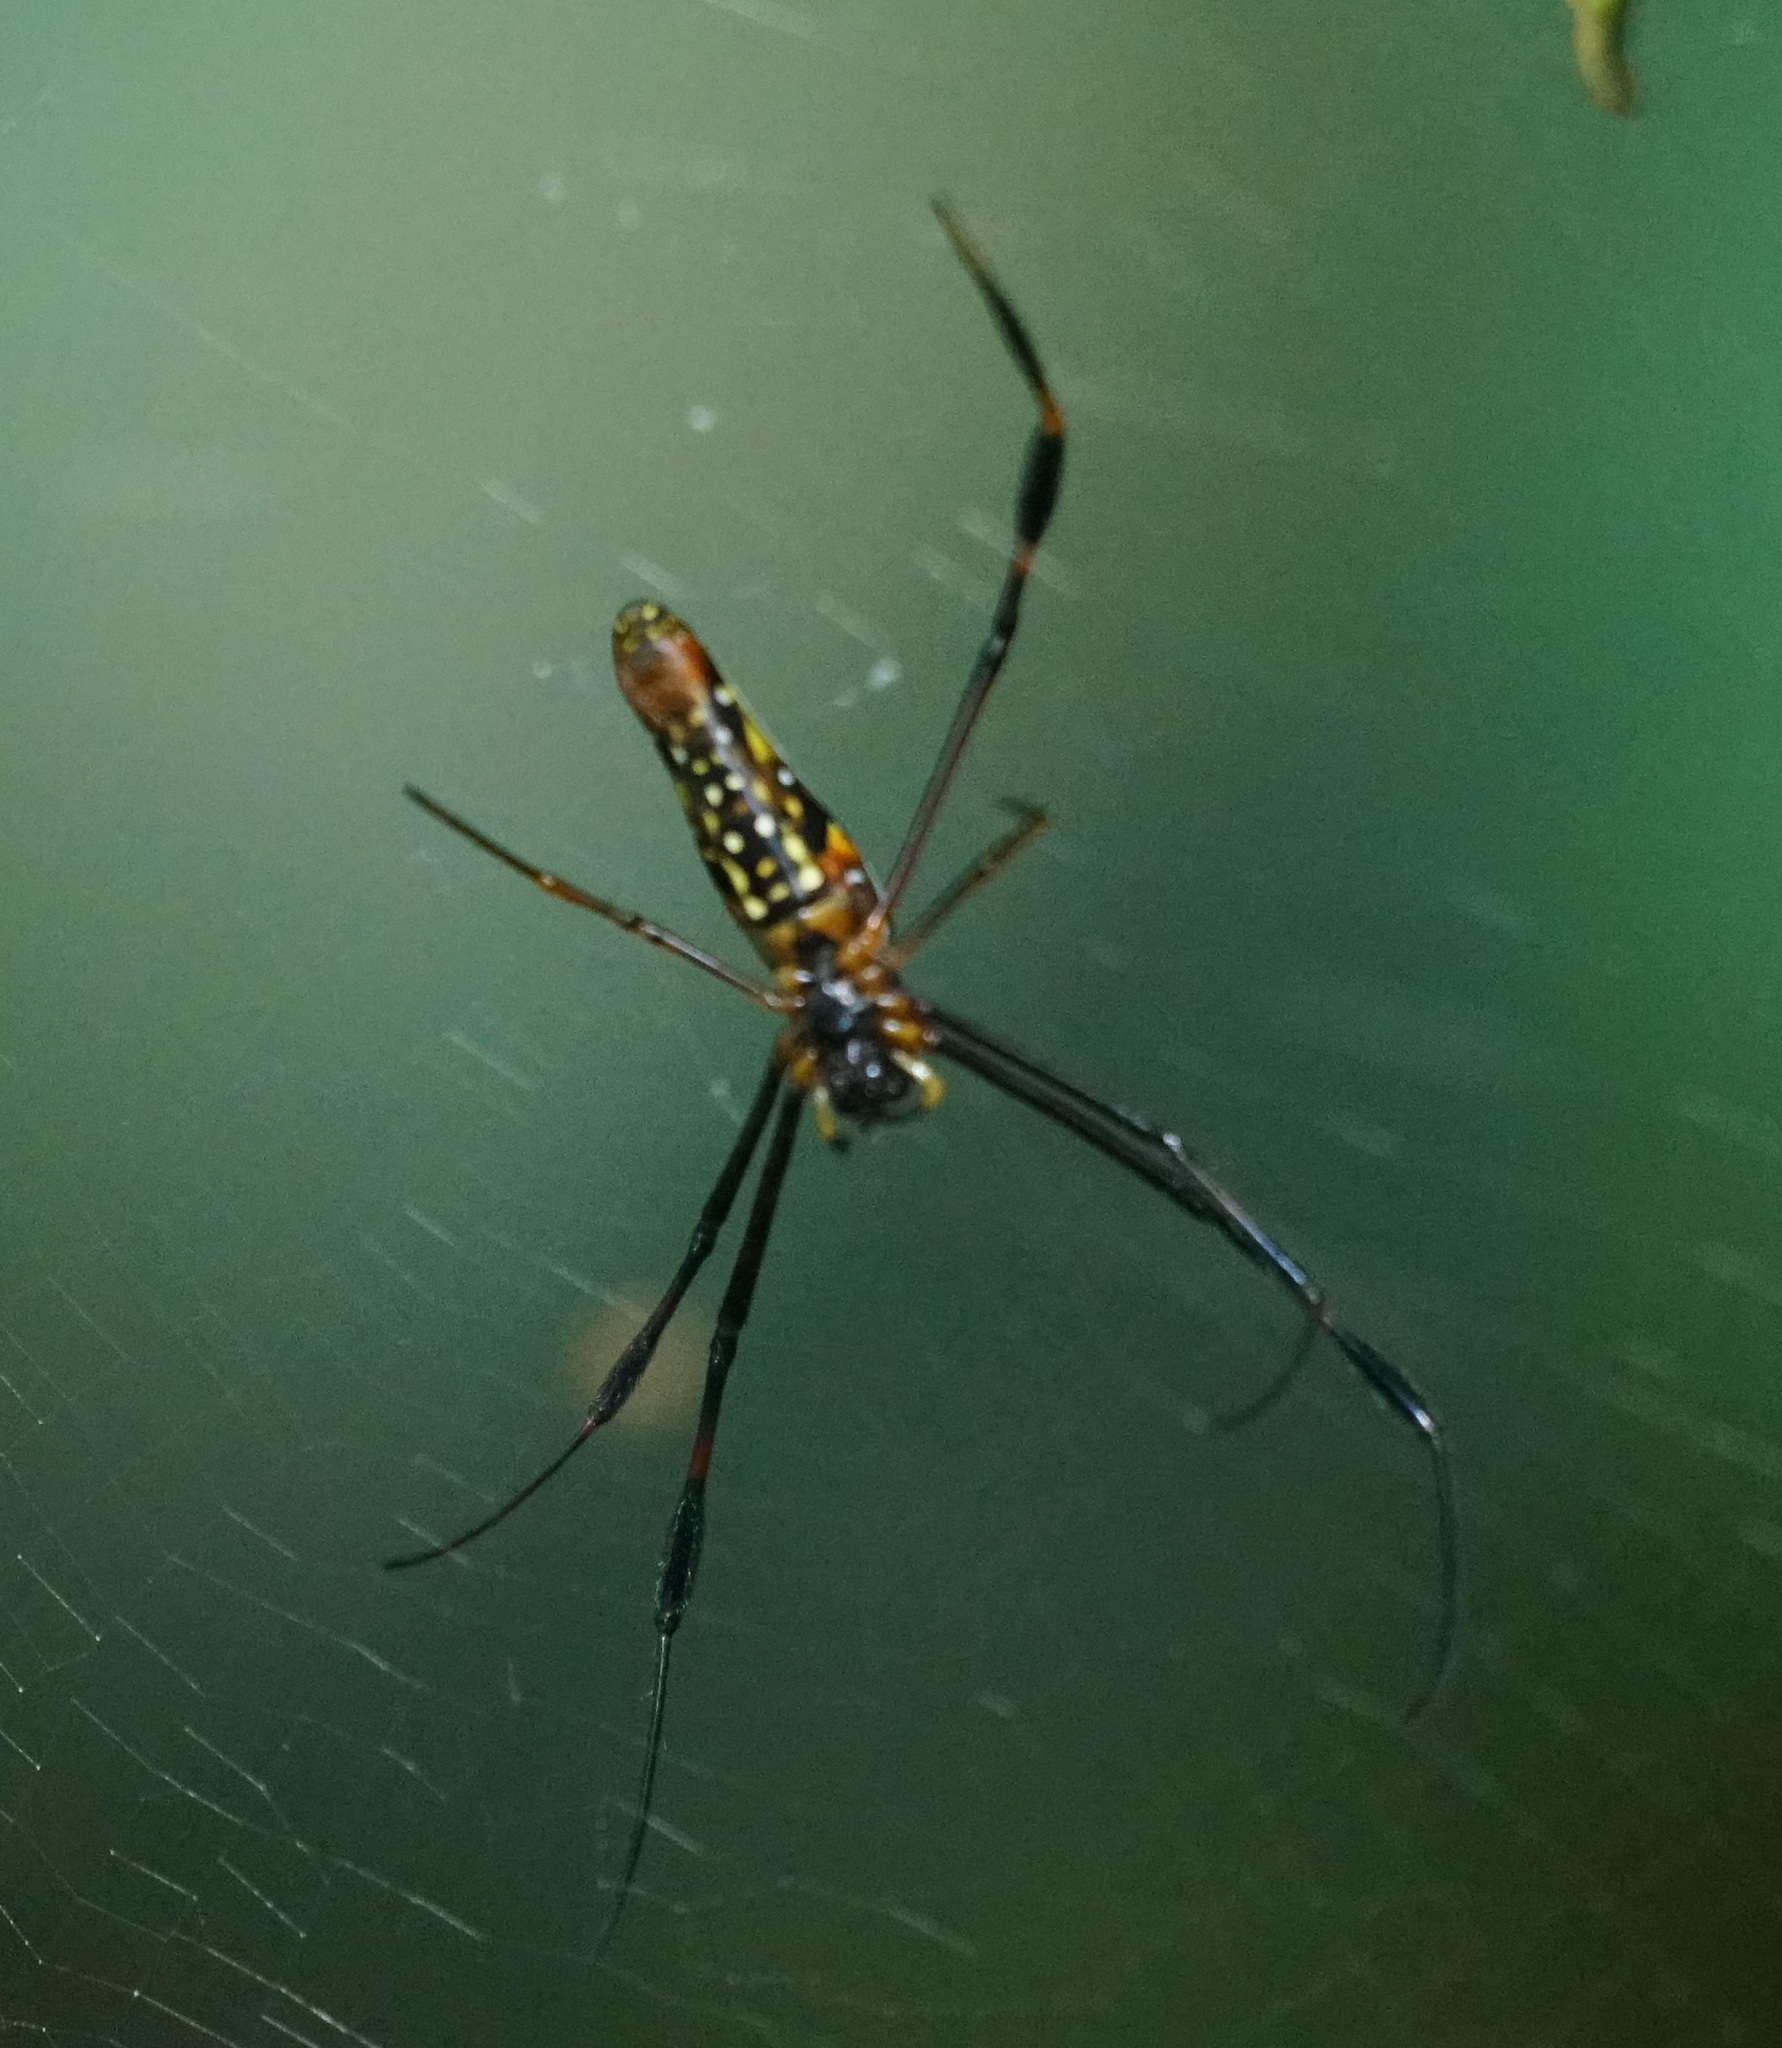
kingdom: Animalia
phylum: Arthropoda
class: Arachnida
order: Araneae
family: Araneidae
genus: Nephila
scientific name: Nephila pilipes
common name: Giant golden orb weaver
